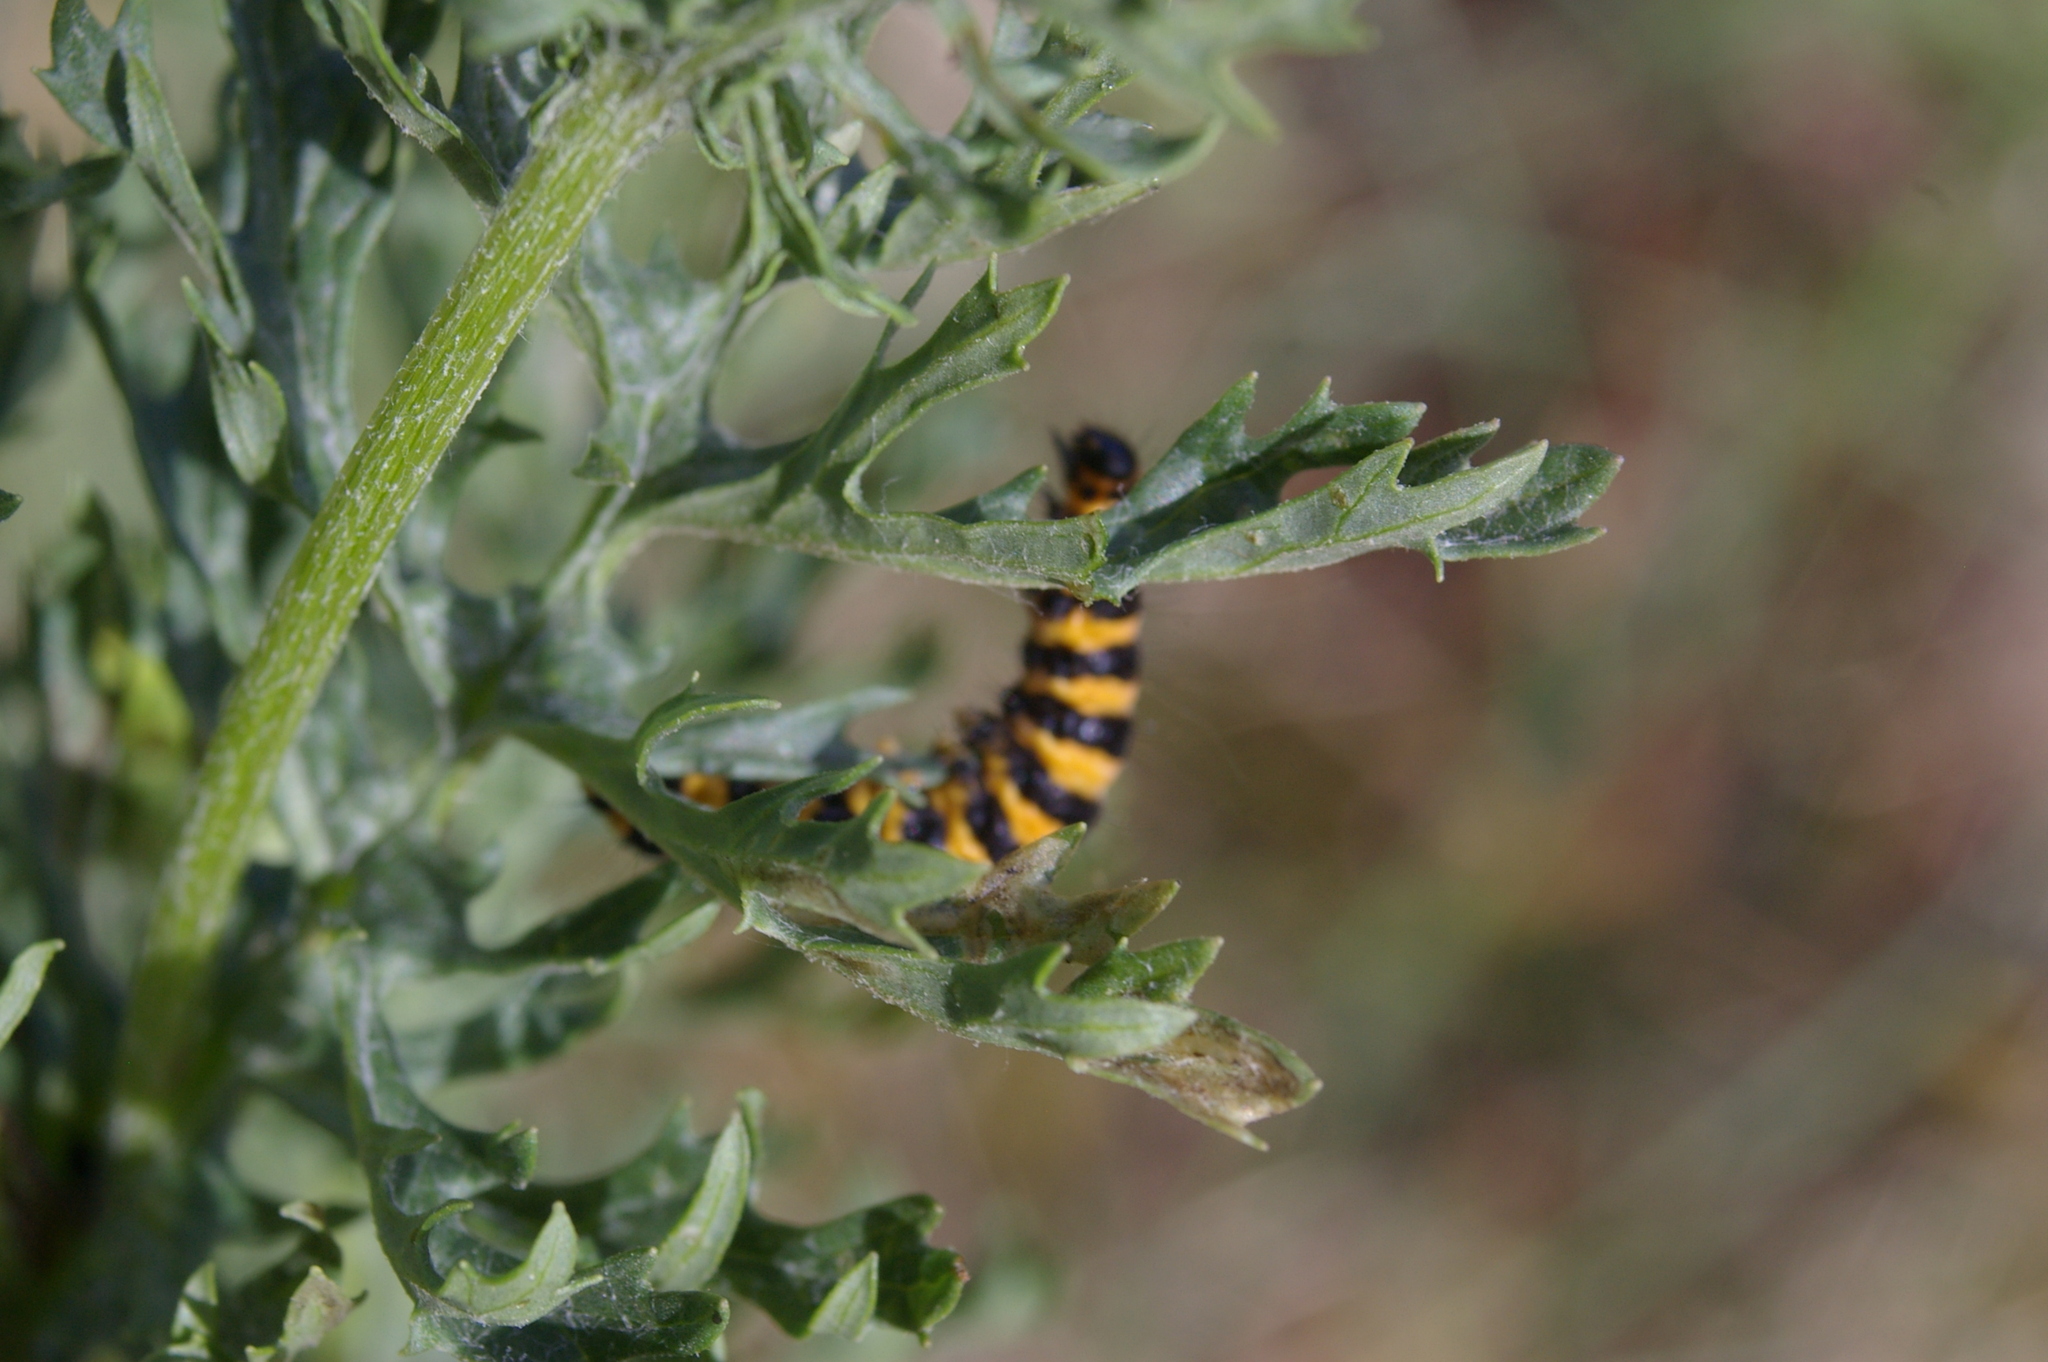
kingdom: Plantae
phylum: Tracheophyta
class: Magnoliopsida
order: Asterales
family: Asteraceae
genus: Jacobaea
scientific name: Jacobaea vulgaris
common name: Stinking willie
